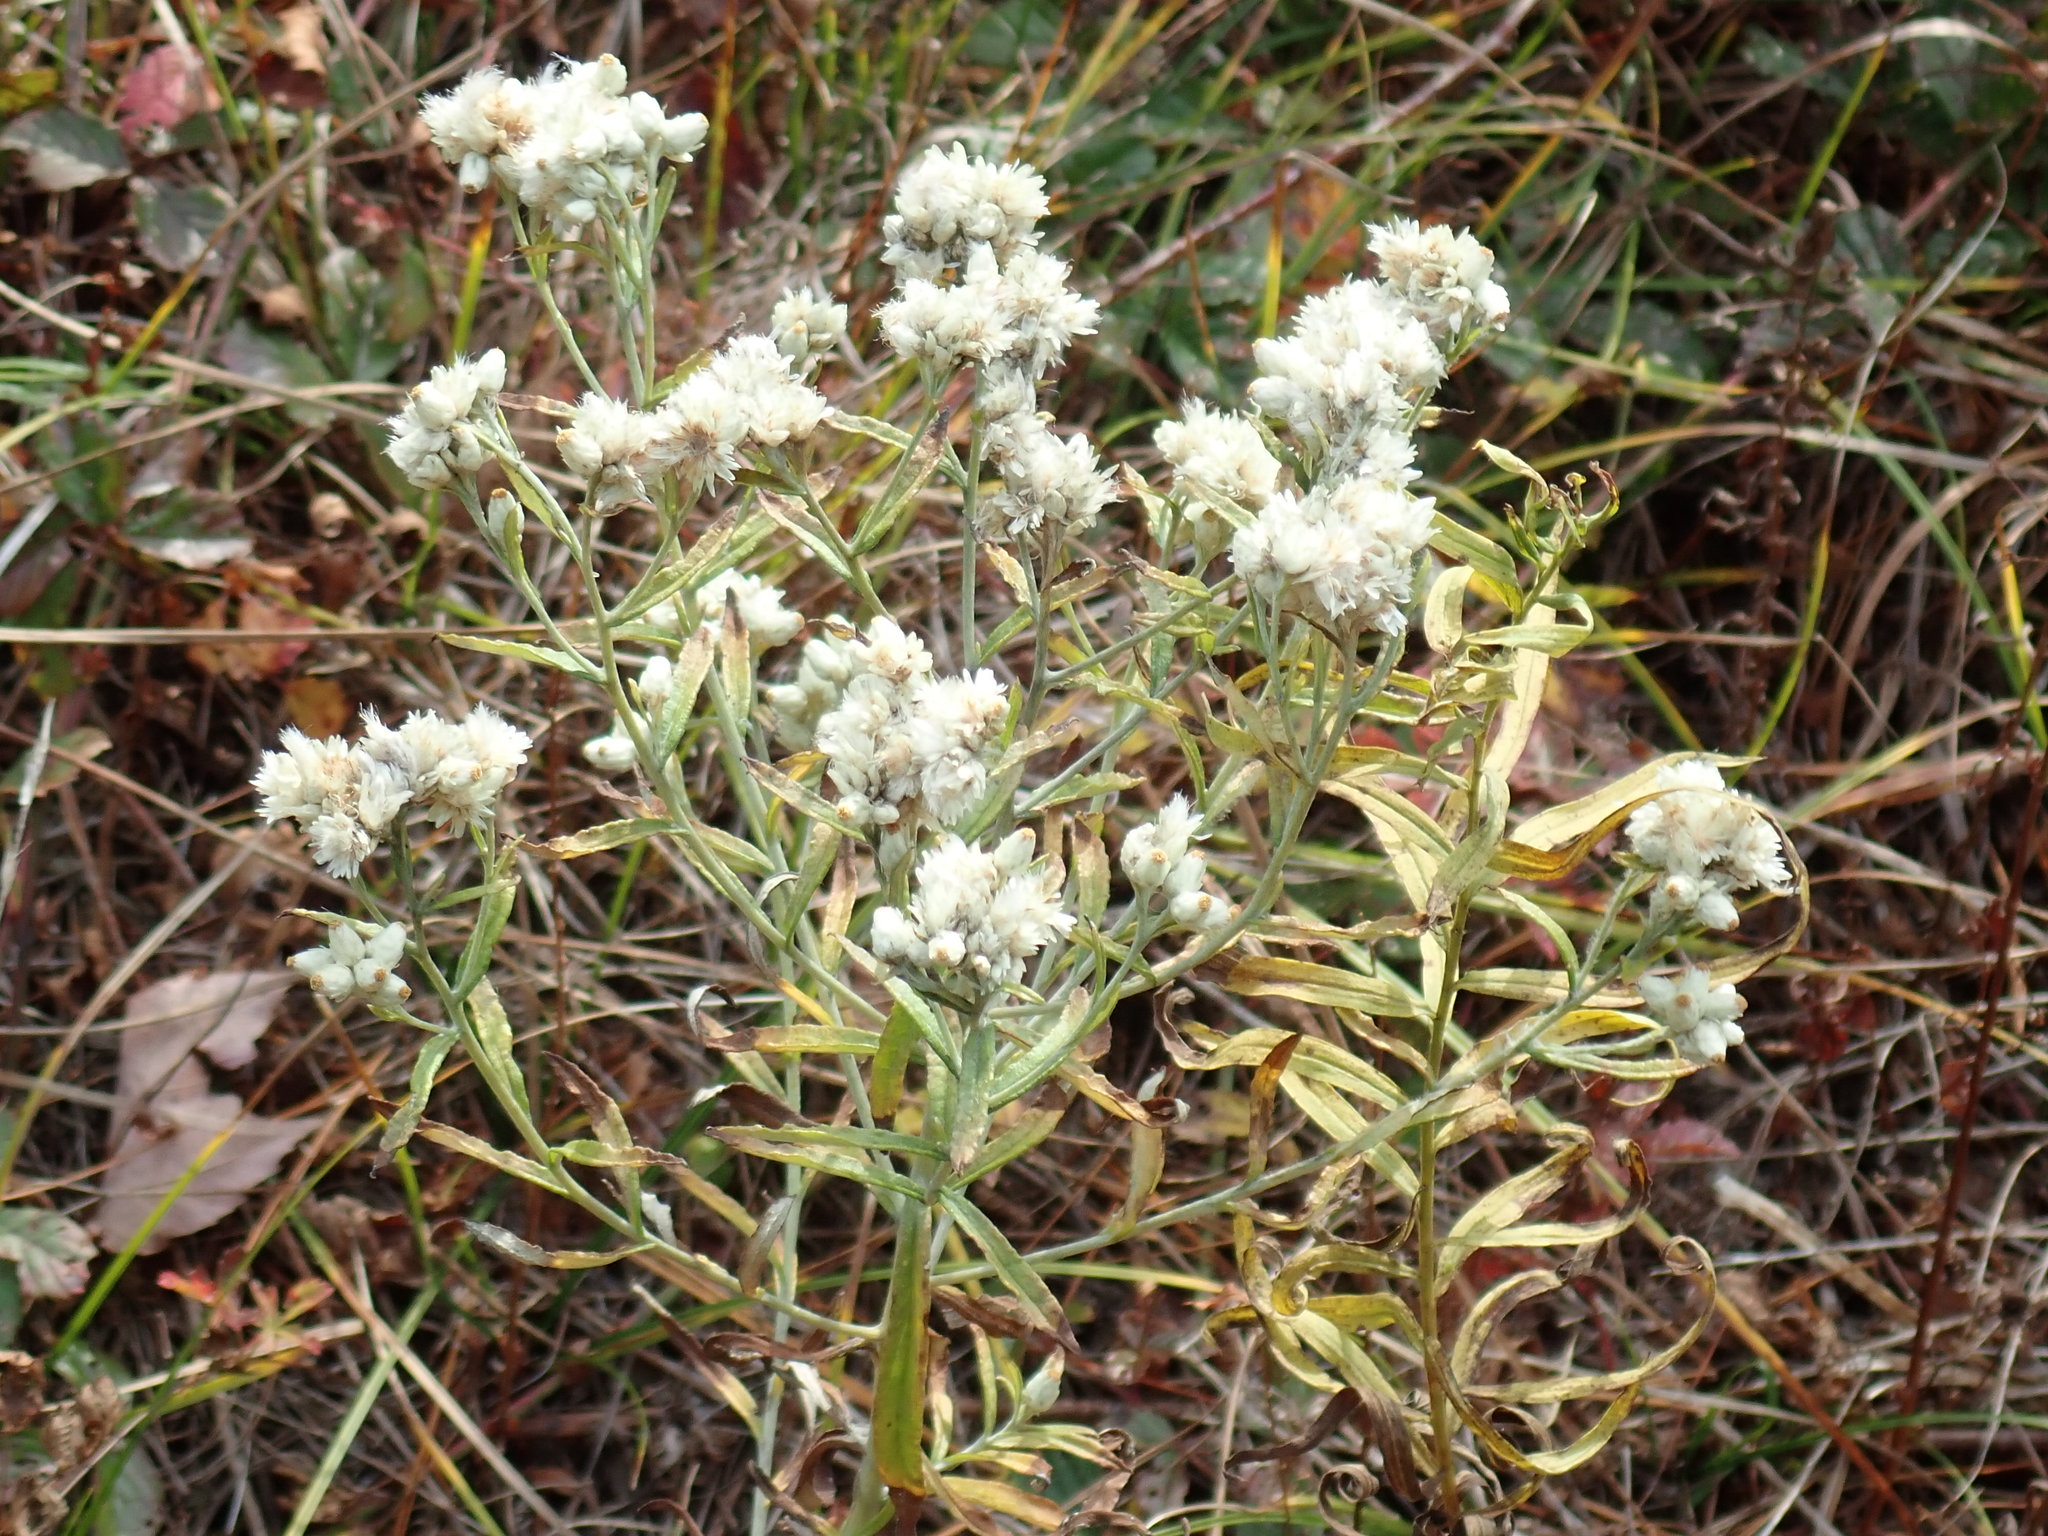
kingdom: Plantae
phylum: Tracheophyta
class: Magnoliopsida
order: Asterales
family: Asteraceae
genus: Pseudognaphalium
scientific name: Pseudognaphalium obtusifolium
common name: Eastern rabbit-tobacco
